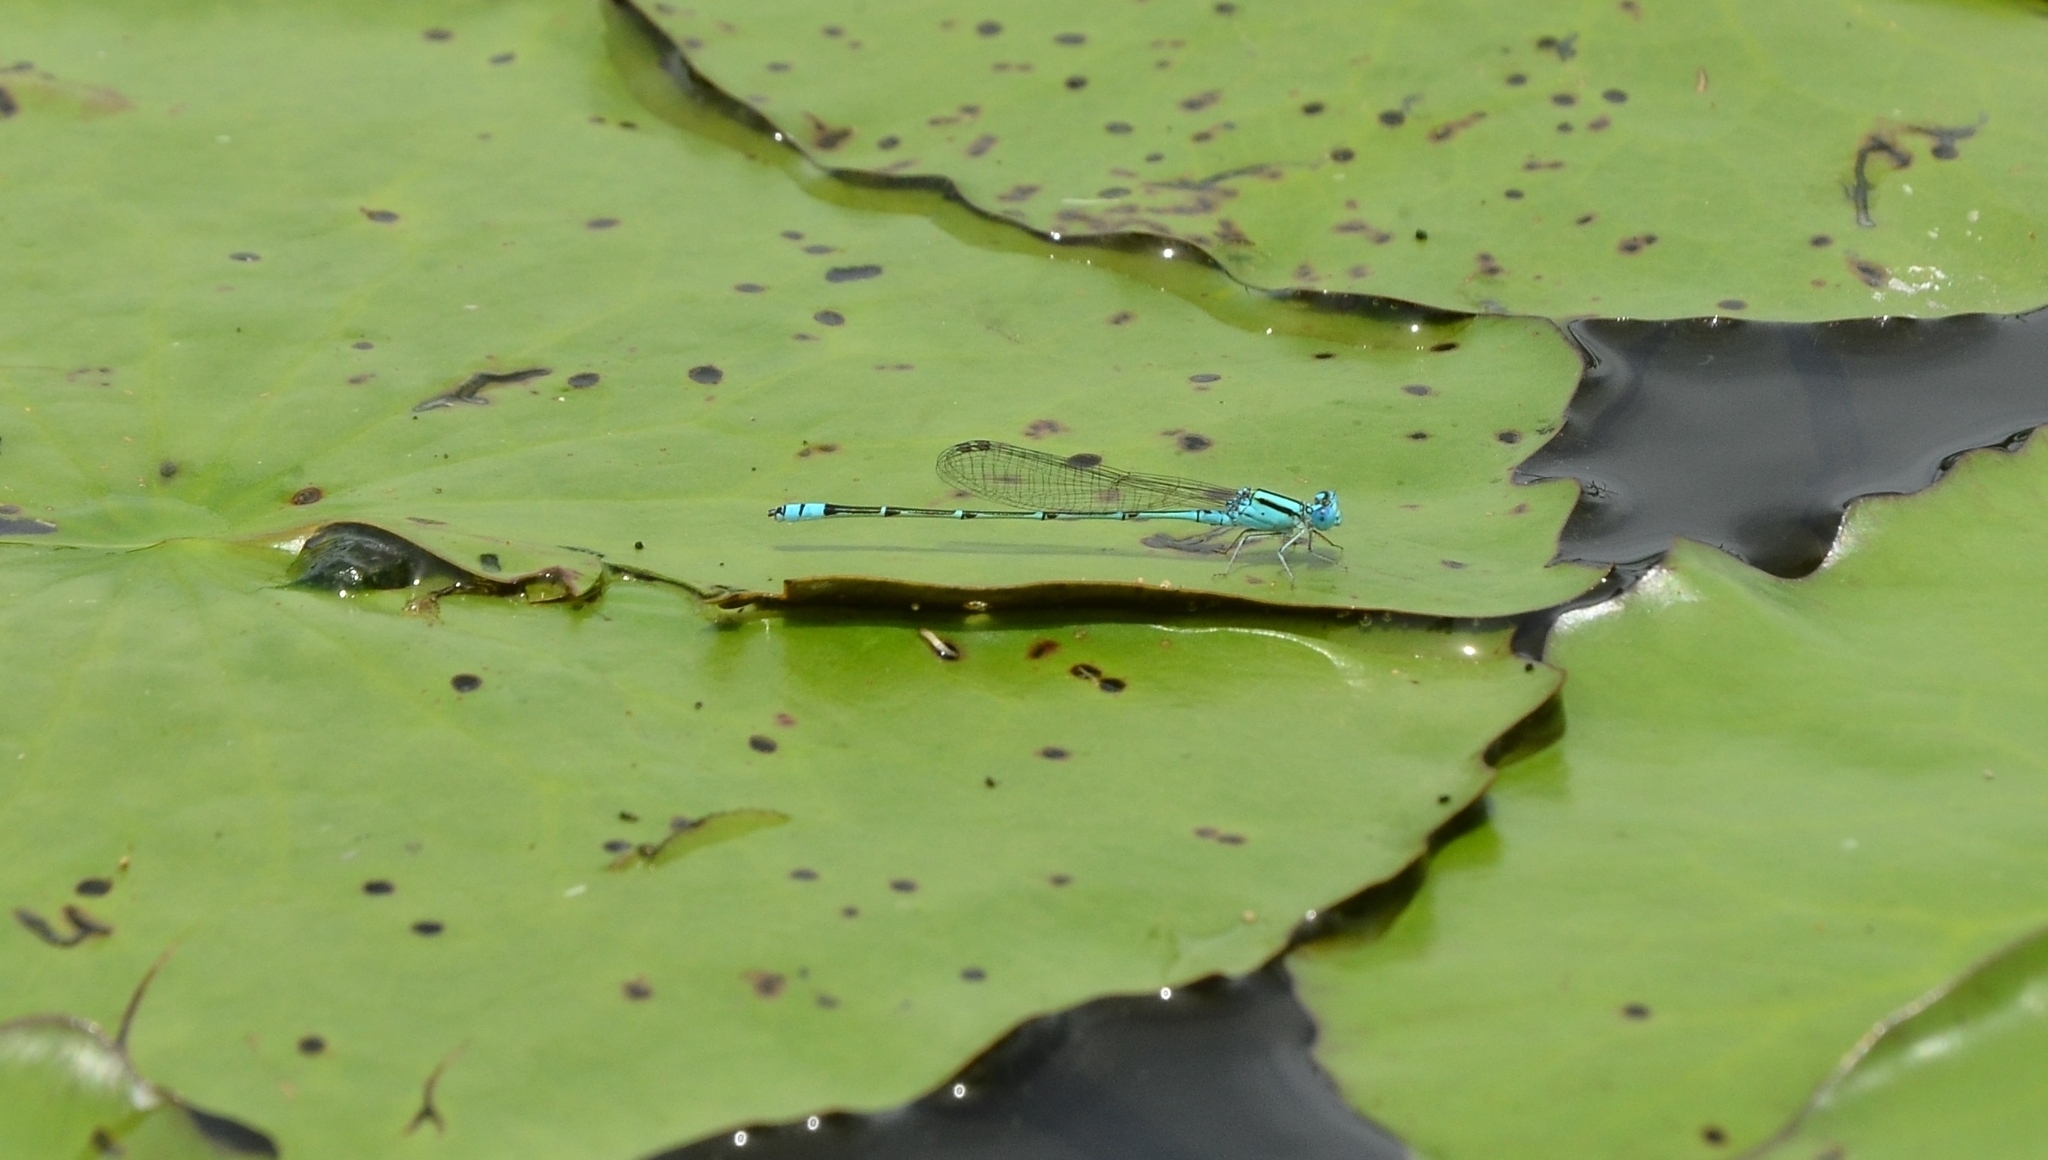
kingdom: Animalia
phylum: Arthropoda
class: Insecta
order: Odonata
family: Coenagrionidae
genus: Pseudagrion
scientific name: Pseudagrion microcephalum
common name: Blue riverdamsel
